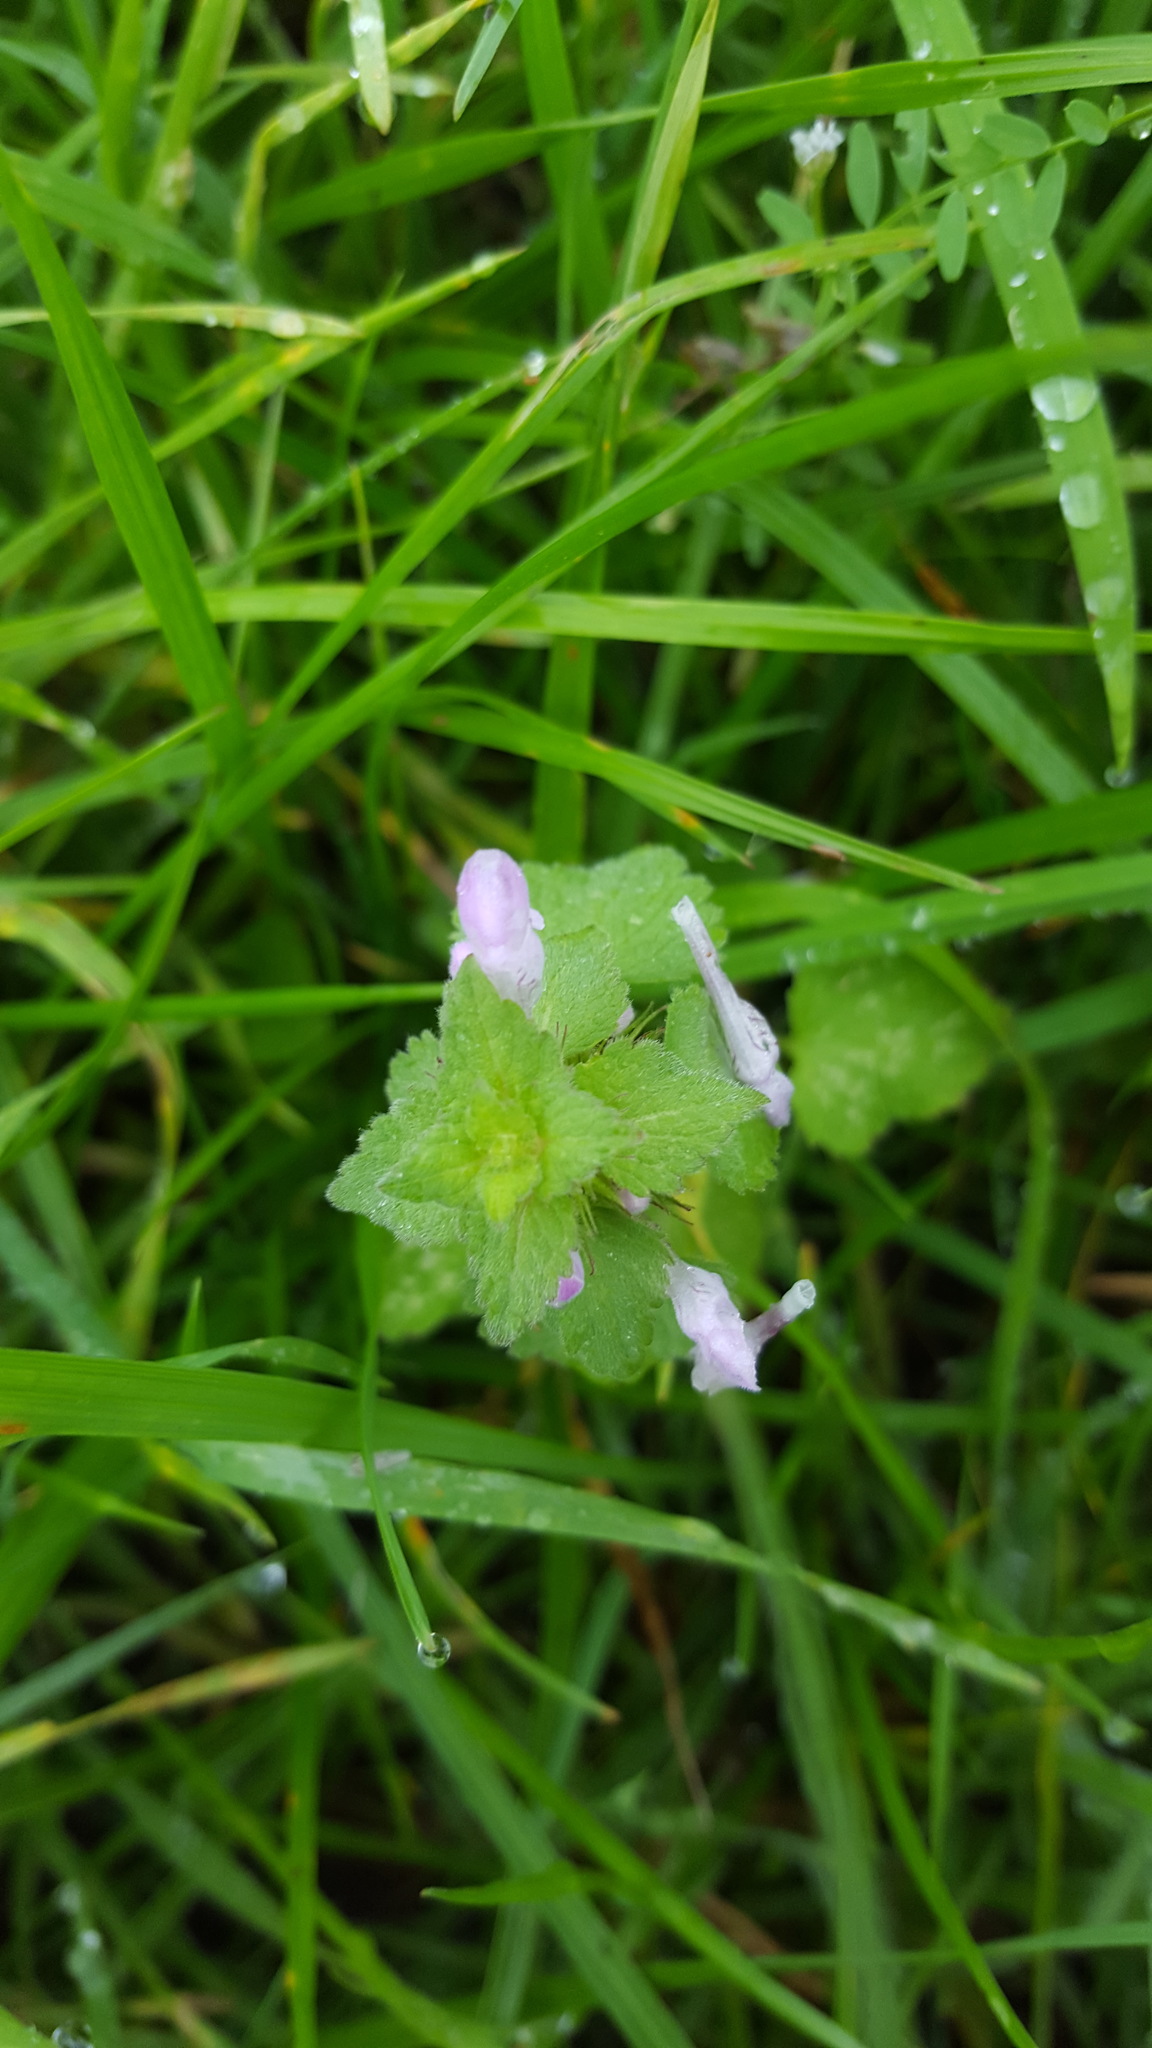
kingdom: Plantae
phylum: Tracheophyta
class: Magnoliopsida
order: Lamiales
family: Lamiaceae
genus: Lamium
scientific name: Lamium purpureum
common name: Red dead-nettle
